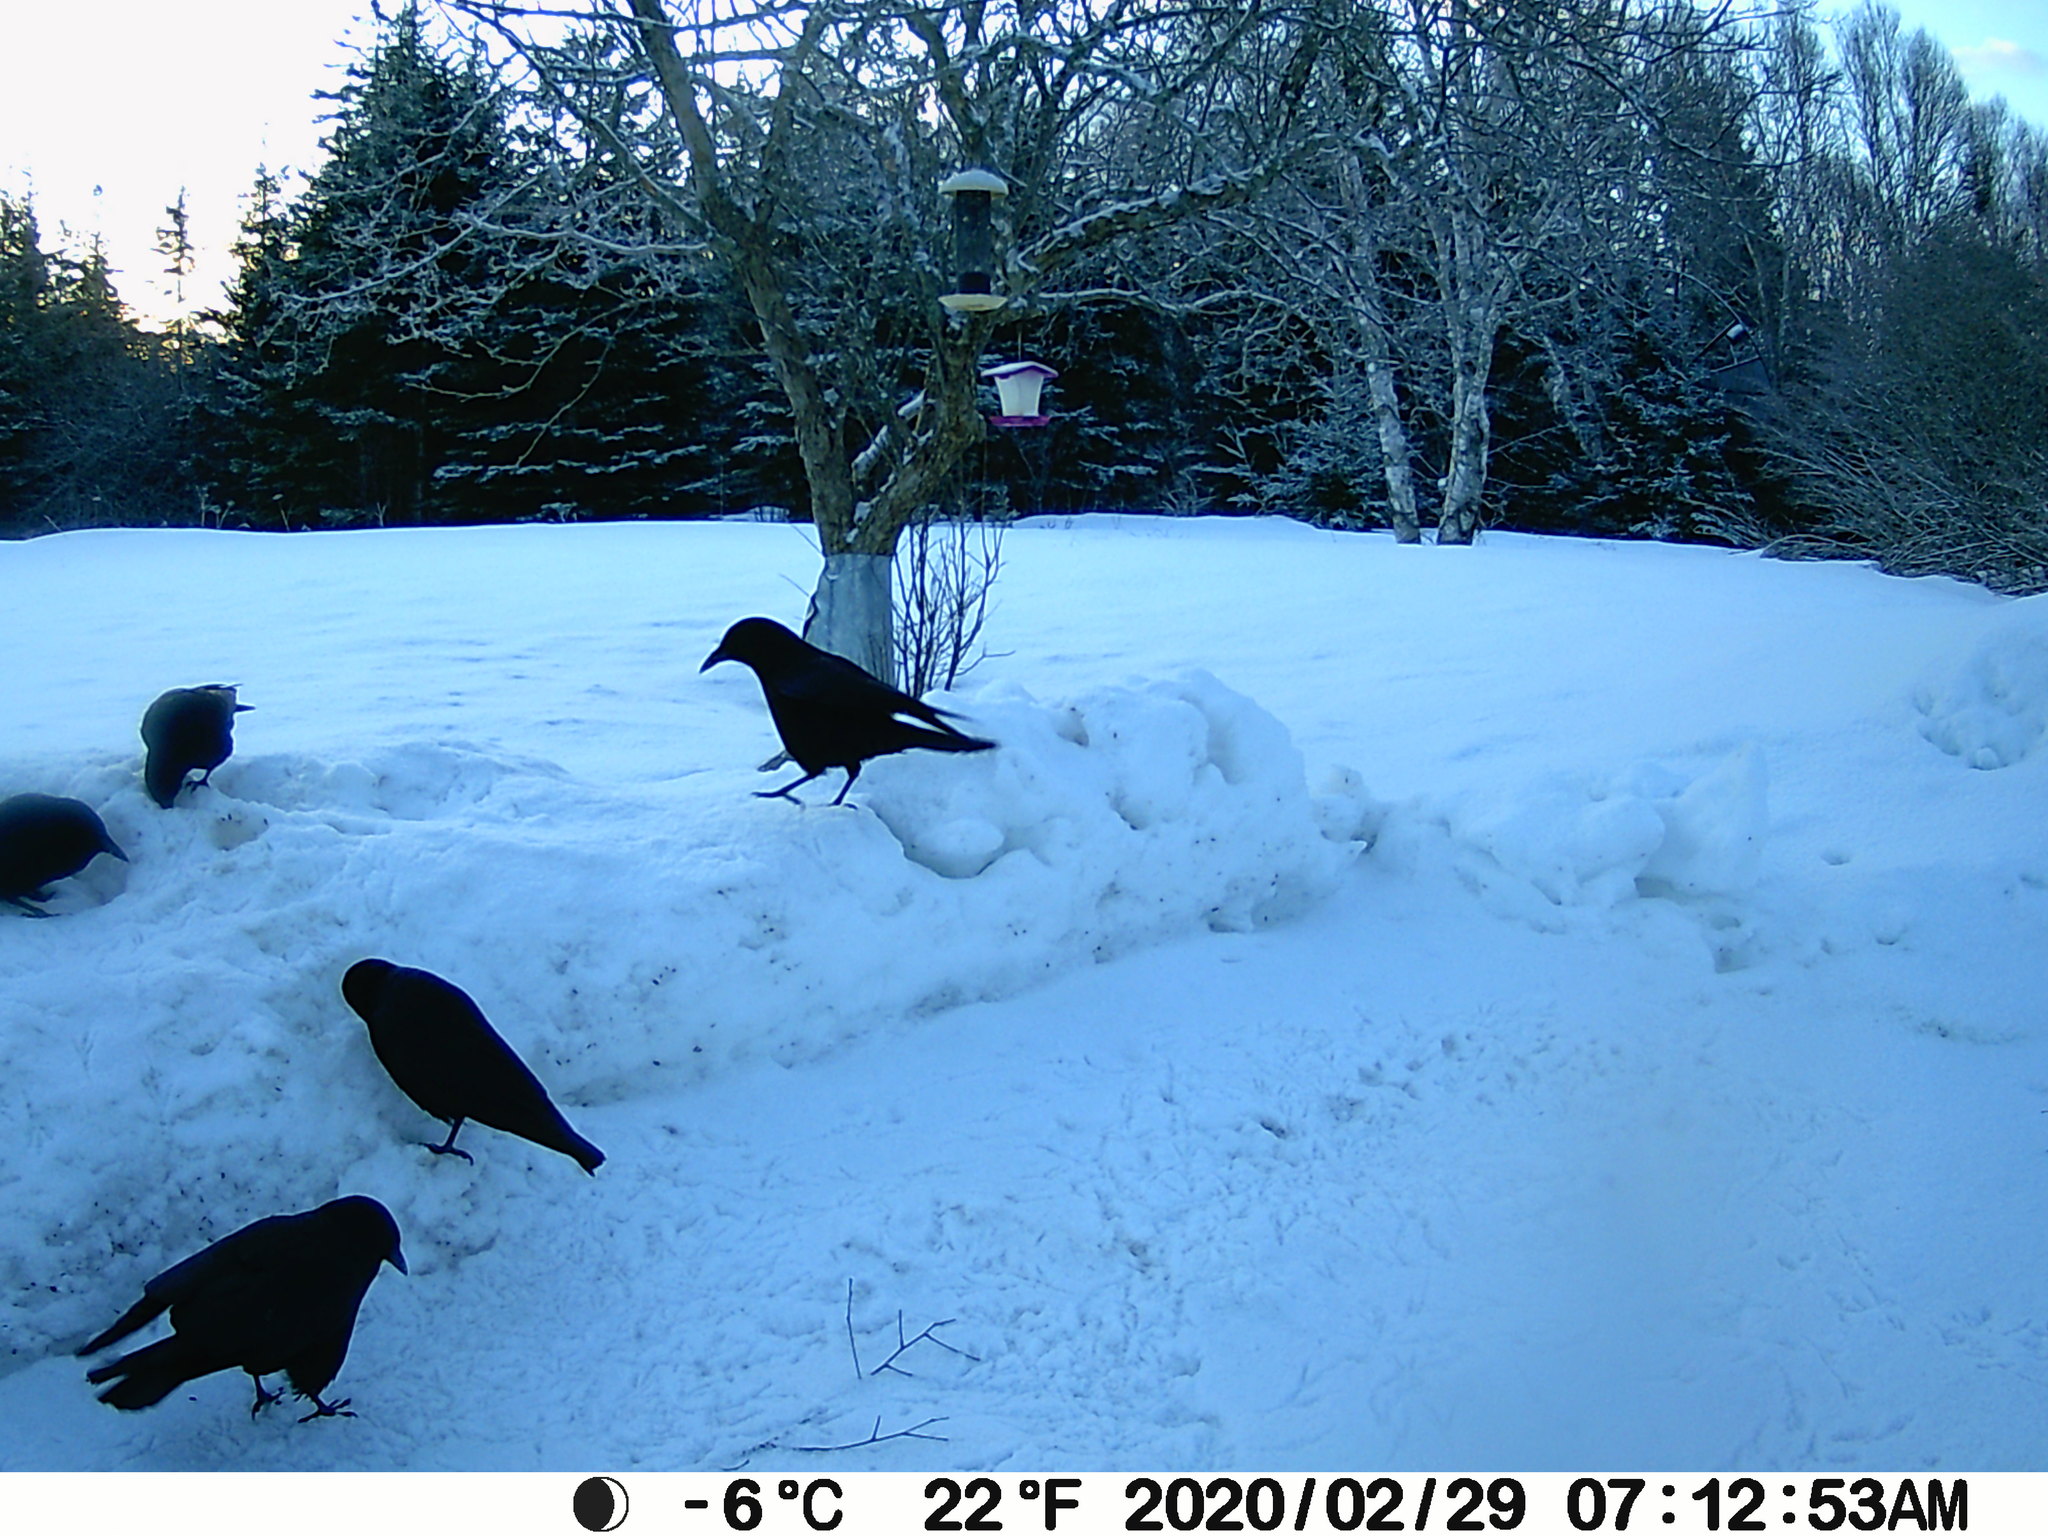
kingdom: Animalia
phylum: Chordata
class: Aves
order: Passeriformes
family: Corvidae
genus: Corvus
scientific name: Corvus brachyrhynchos
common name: American crow
